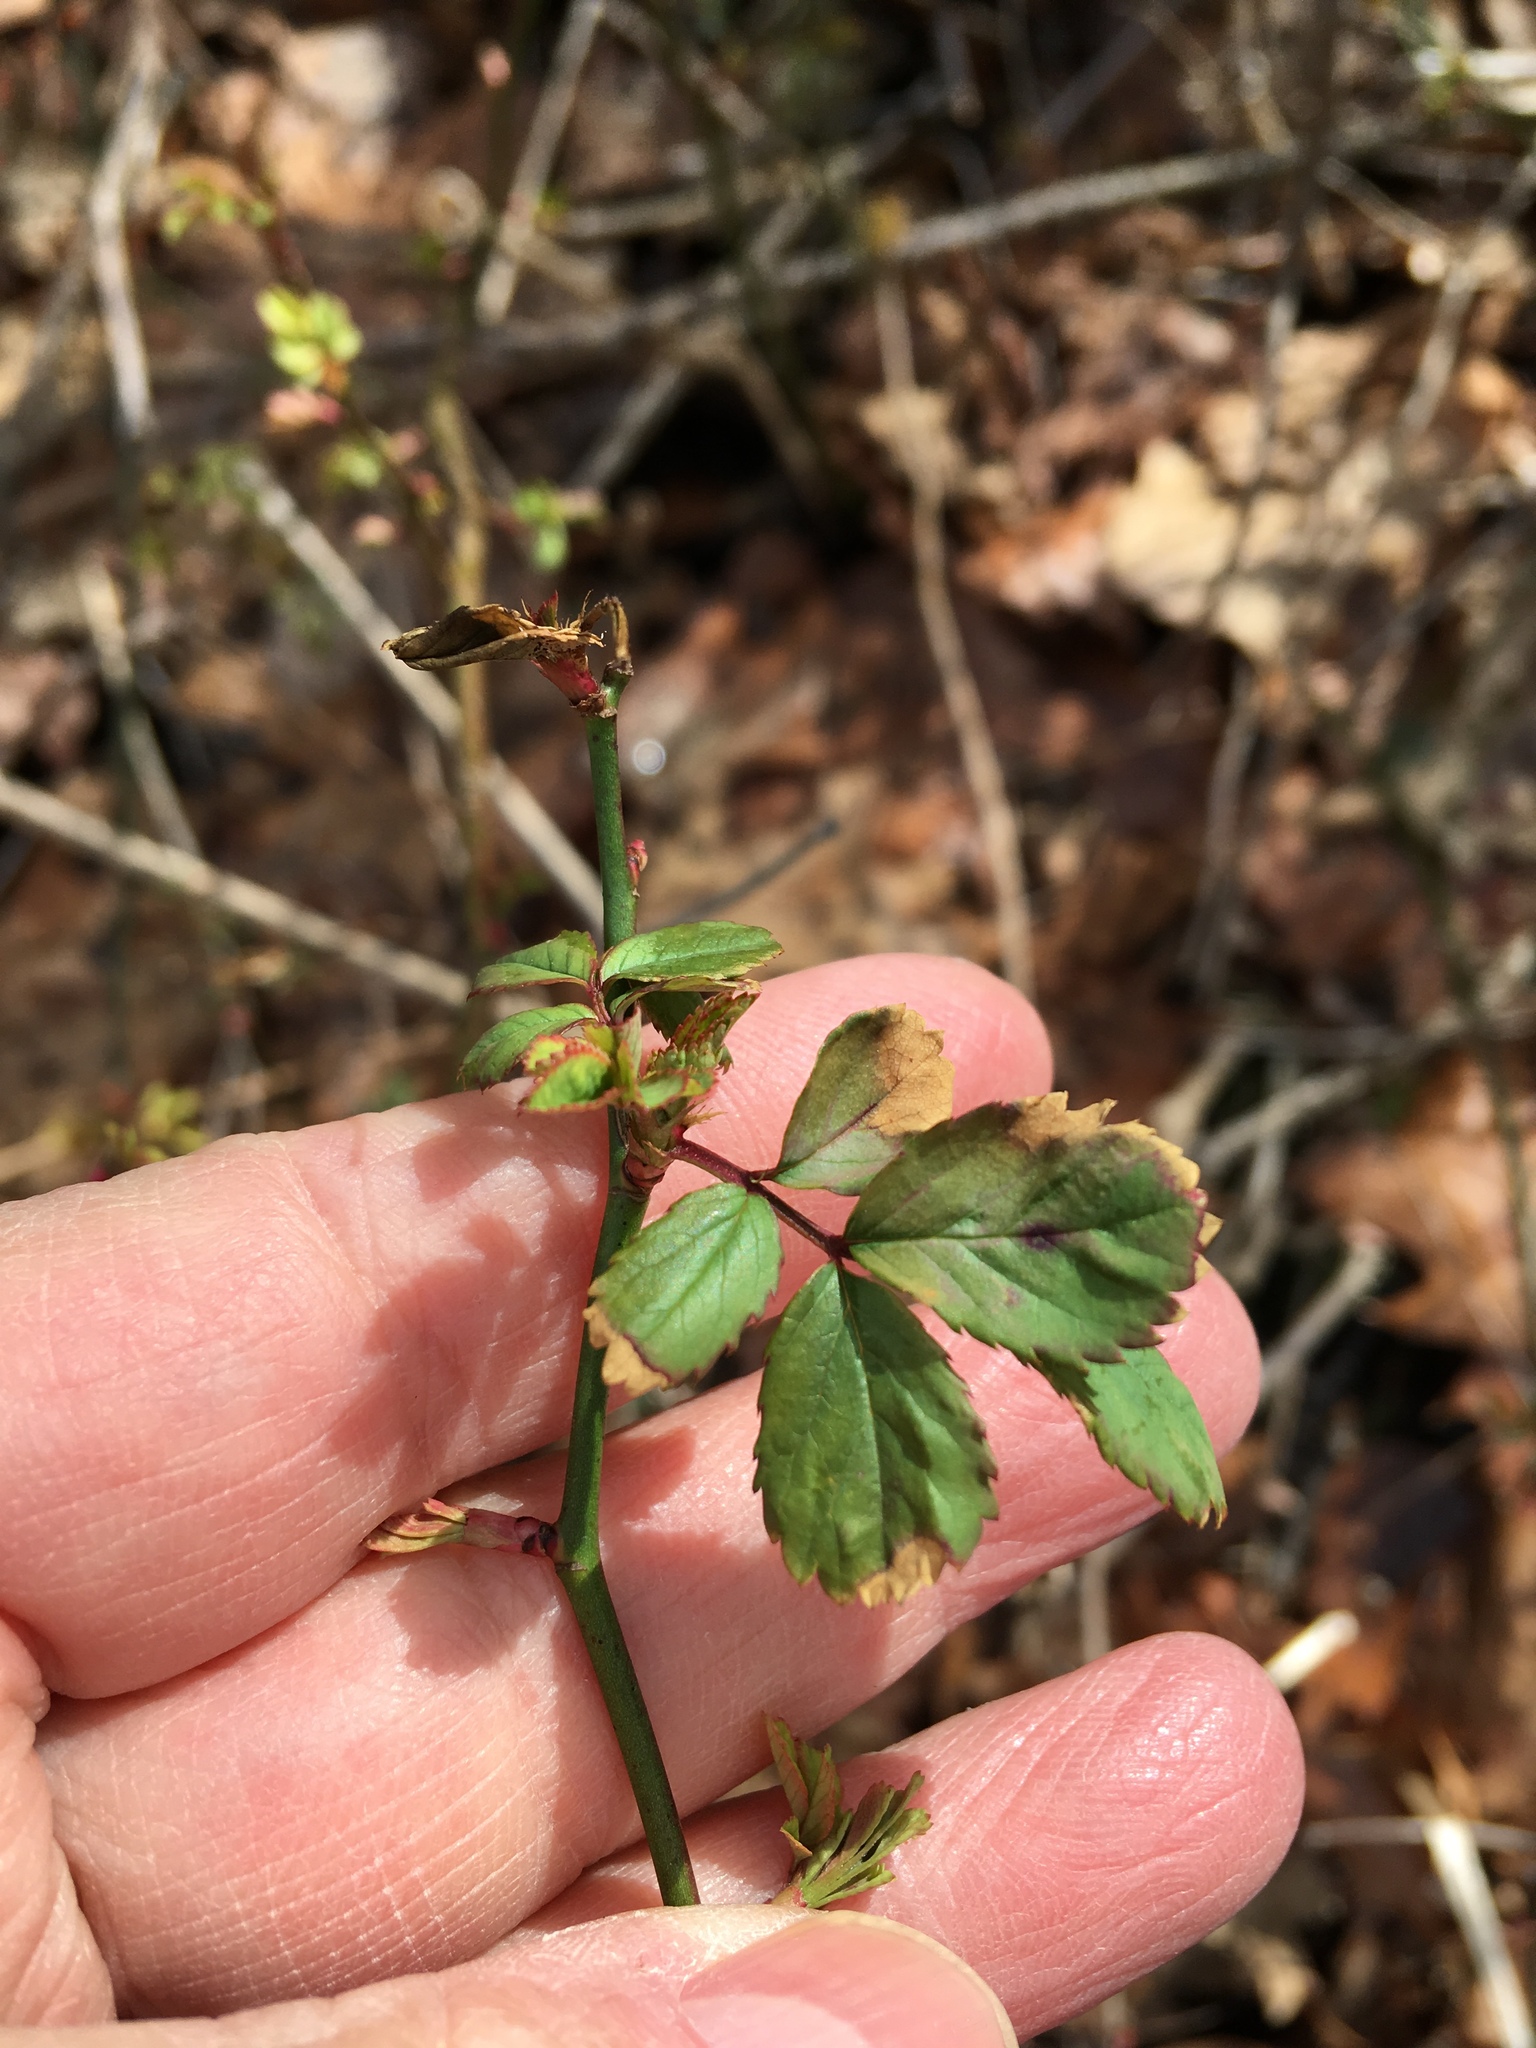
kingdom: Plantae
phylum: Tracheophyta
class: Magnoliopsida
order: Rosales
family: Rosaceae
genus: Rosa
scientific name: Rosa multiflora
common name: Multiflora rose
